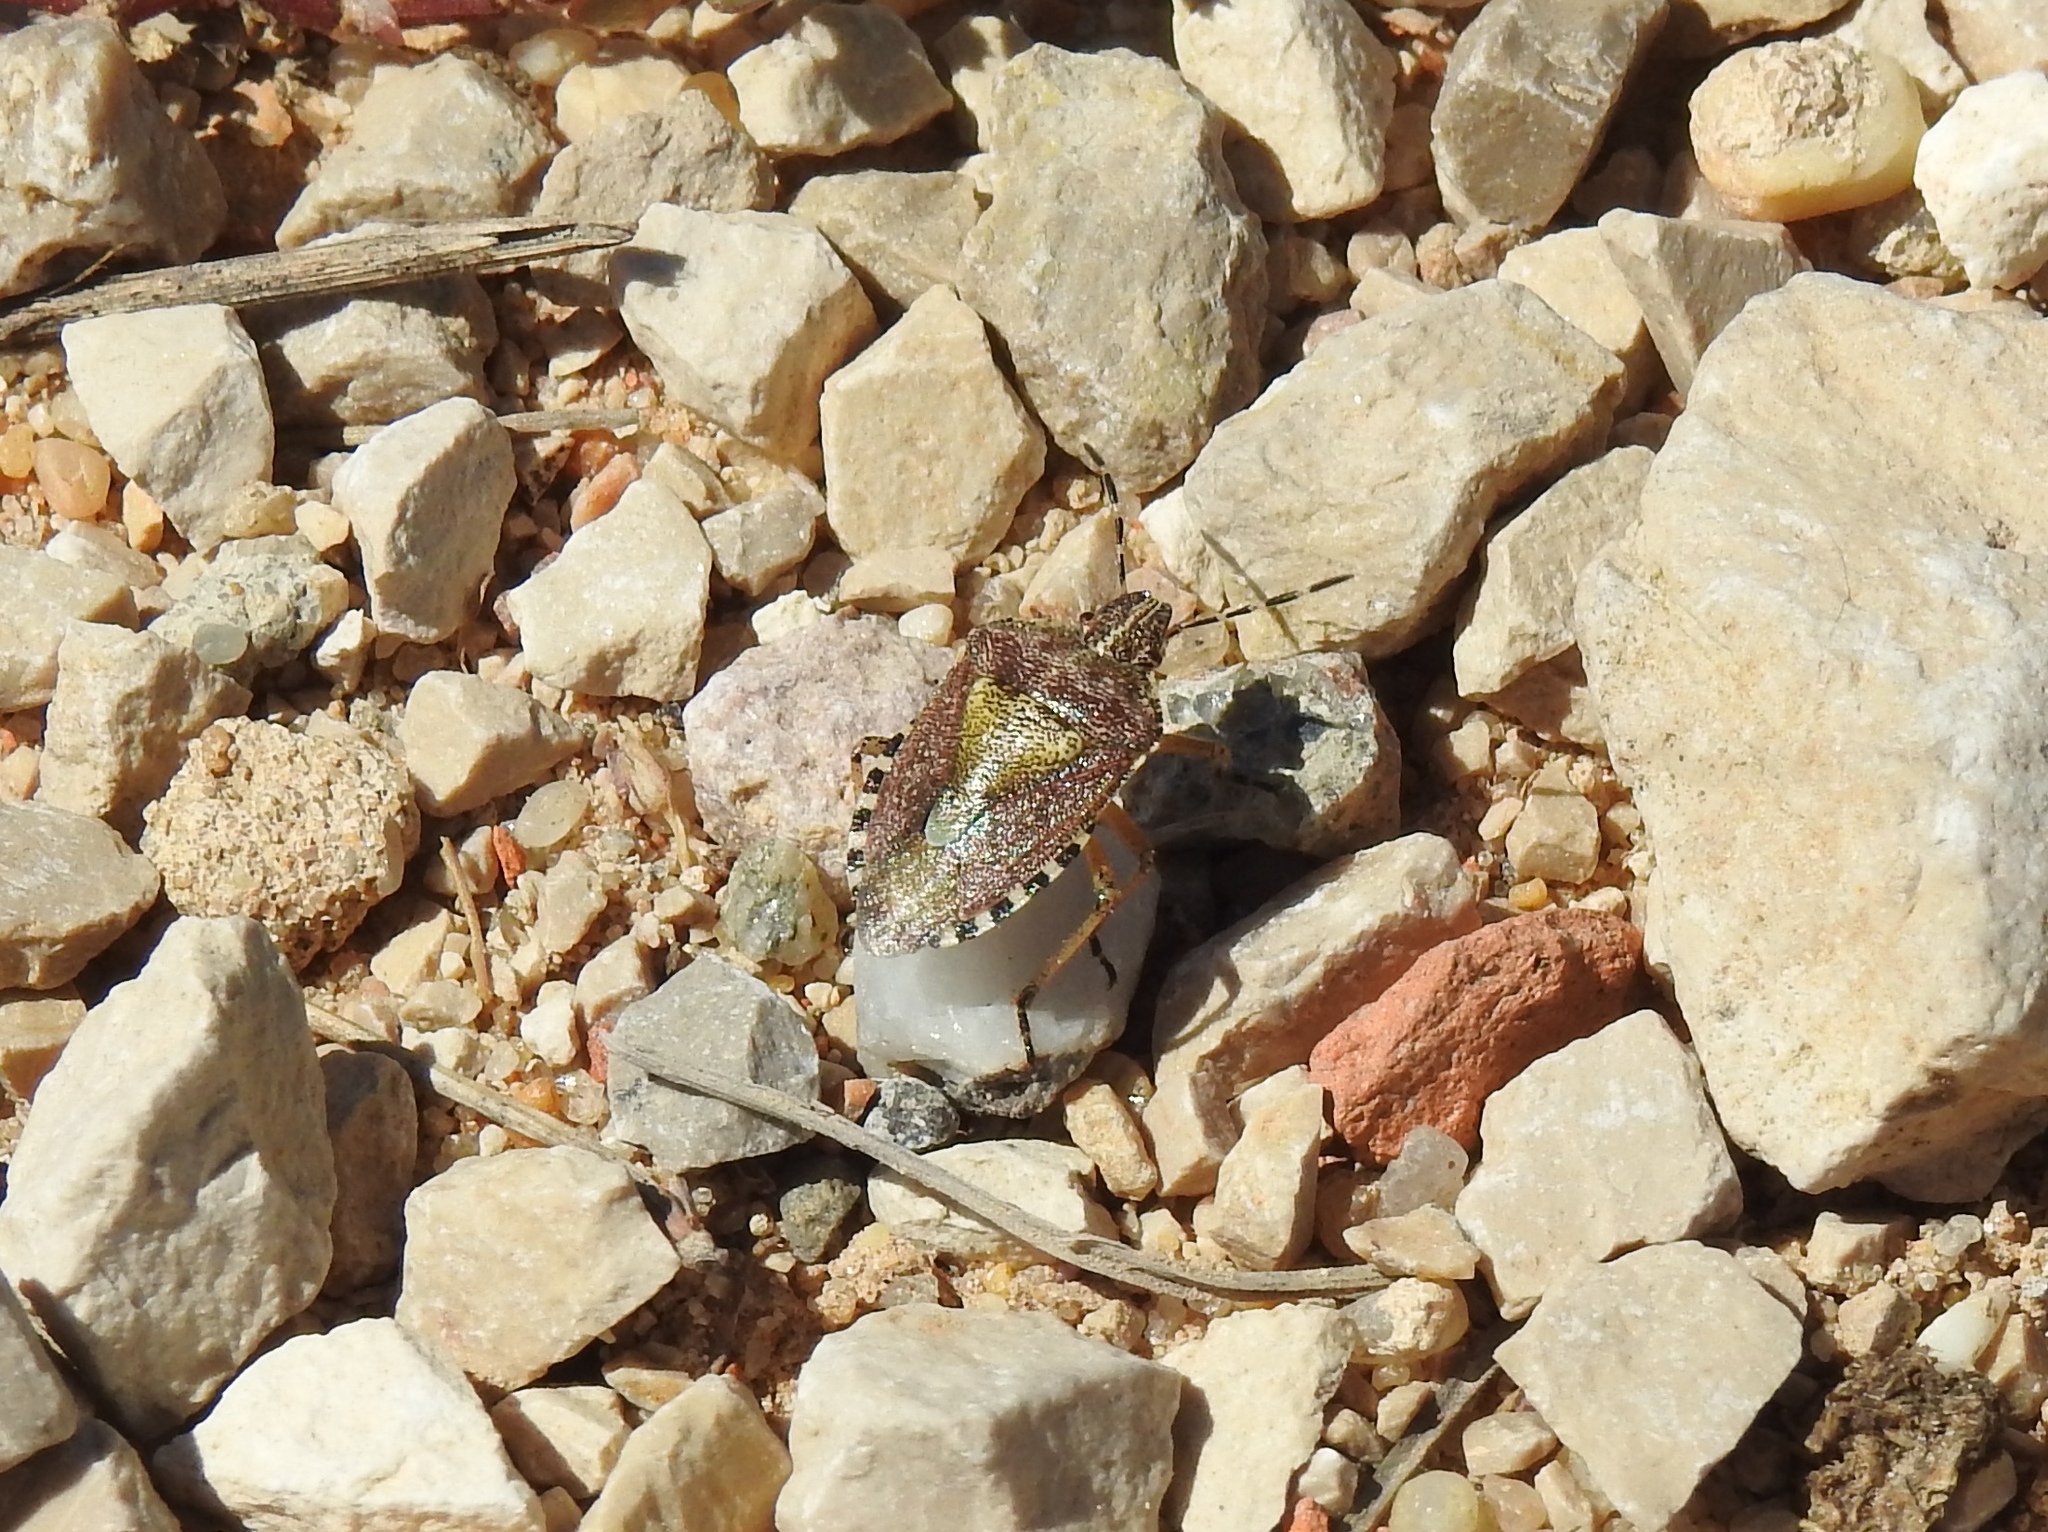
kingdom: Animalia
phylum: Arthropoda
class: Insecta
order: Hemiptera
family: Pentatomidae
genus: Dolycoris
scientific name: Dolycoris baccarum
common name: Sloe bug
